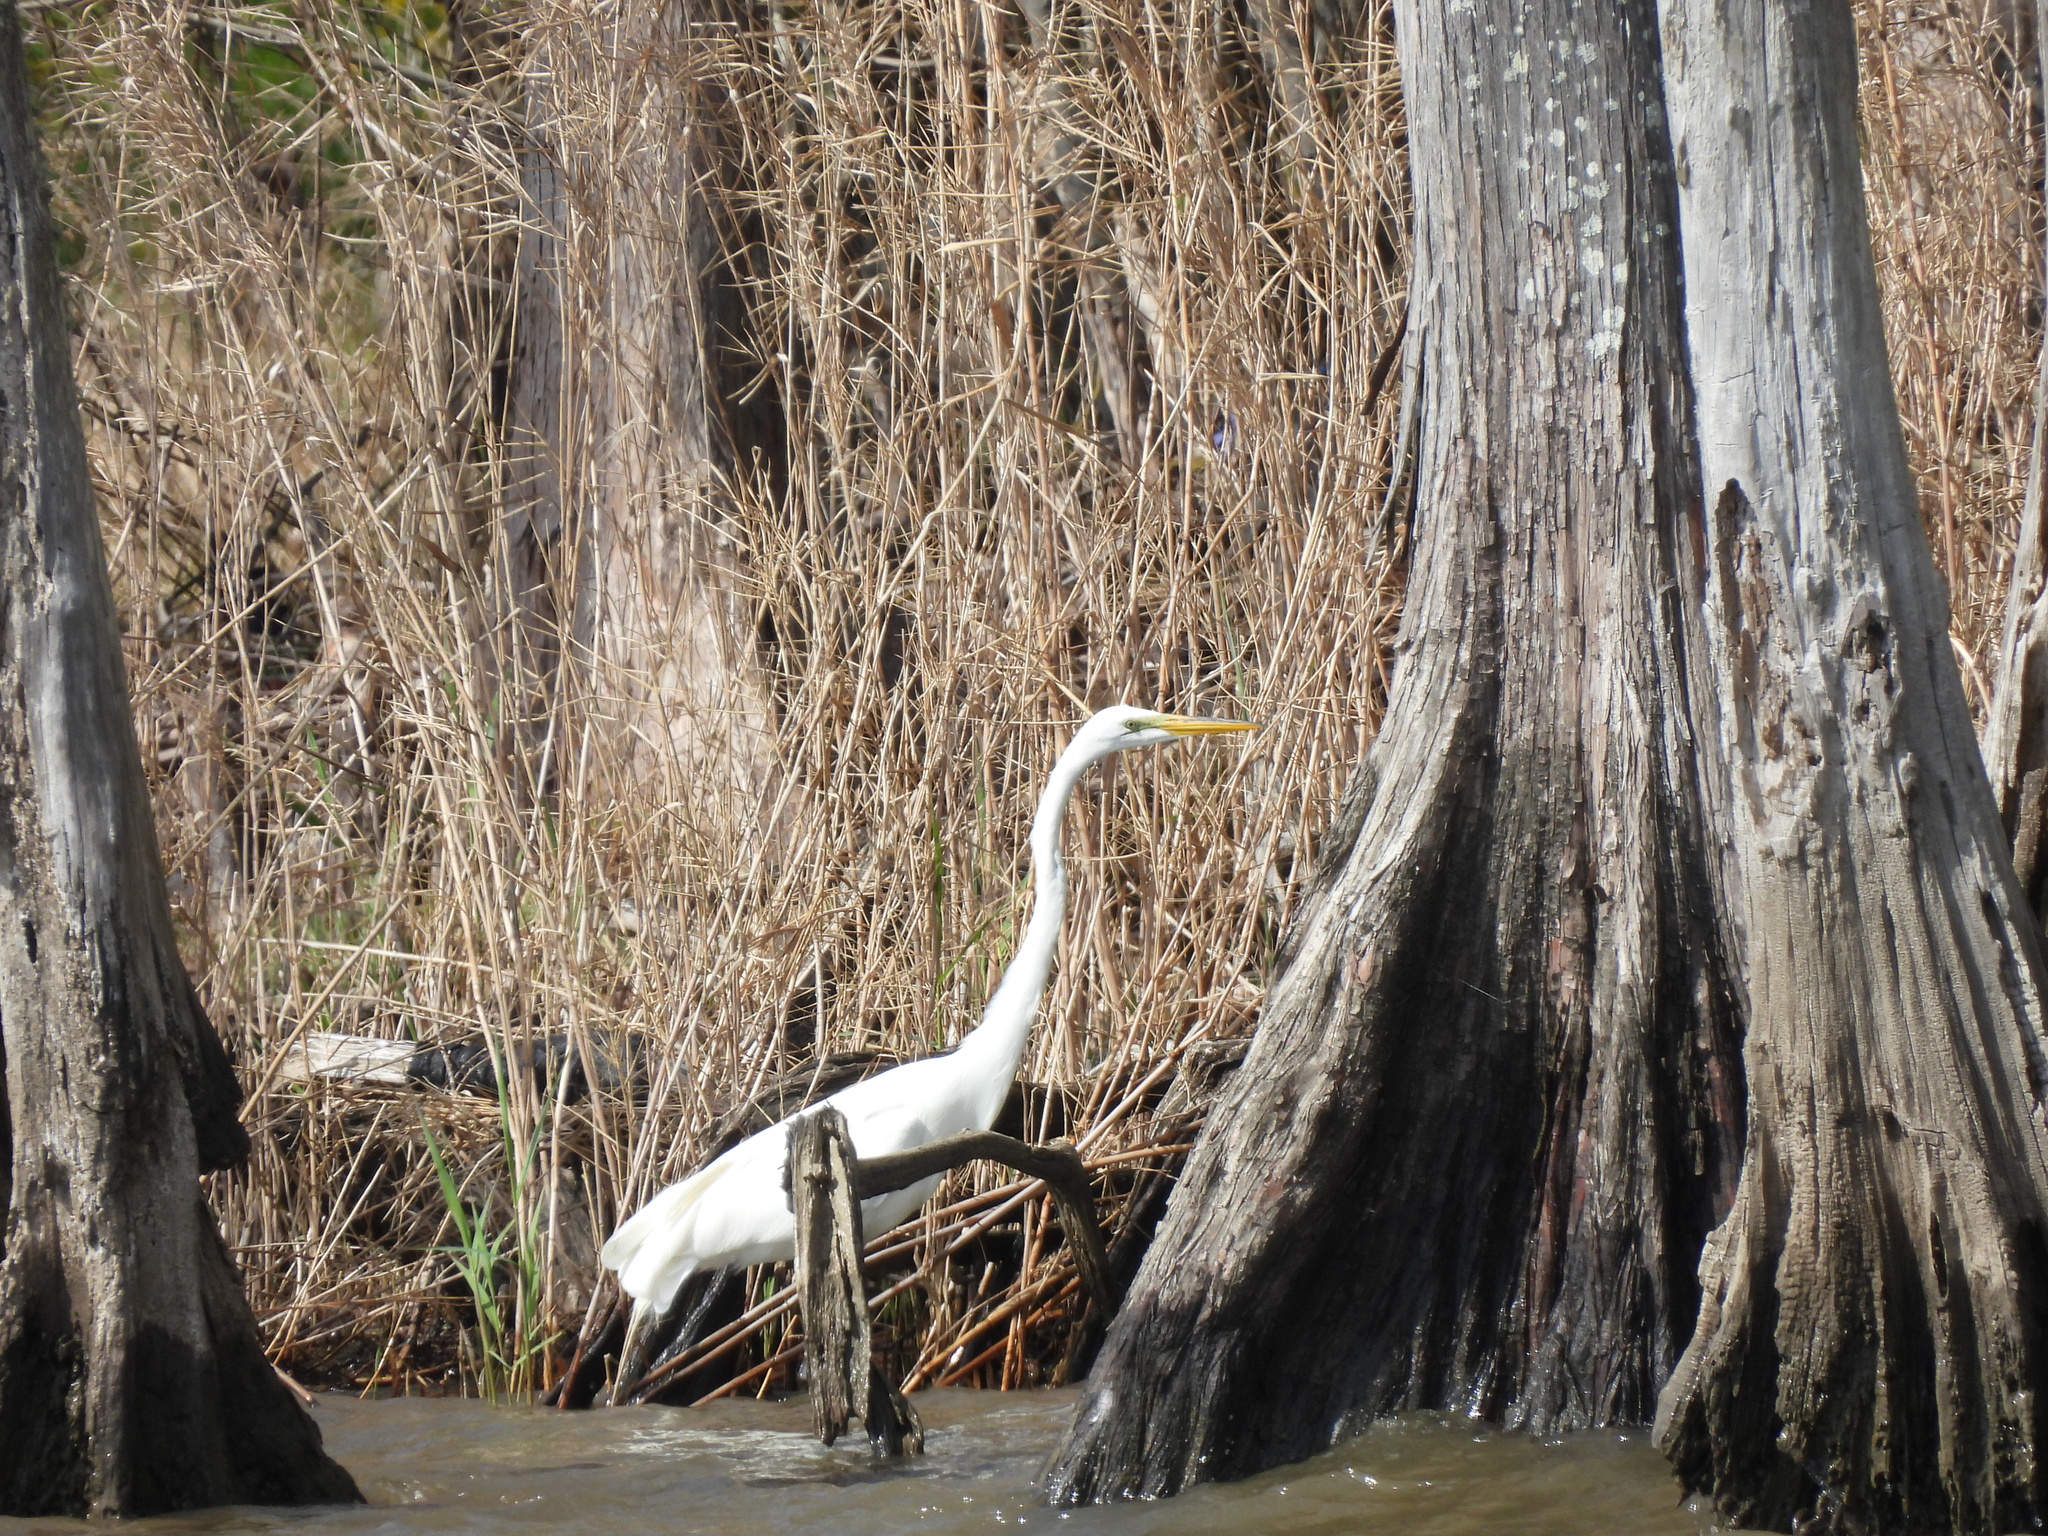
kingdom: Animalia
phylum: Chordata
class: Aves
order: Pelecaniformes
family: Ardeidae
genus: Ardea
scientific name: Ardea alba
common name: Great egret
